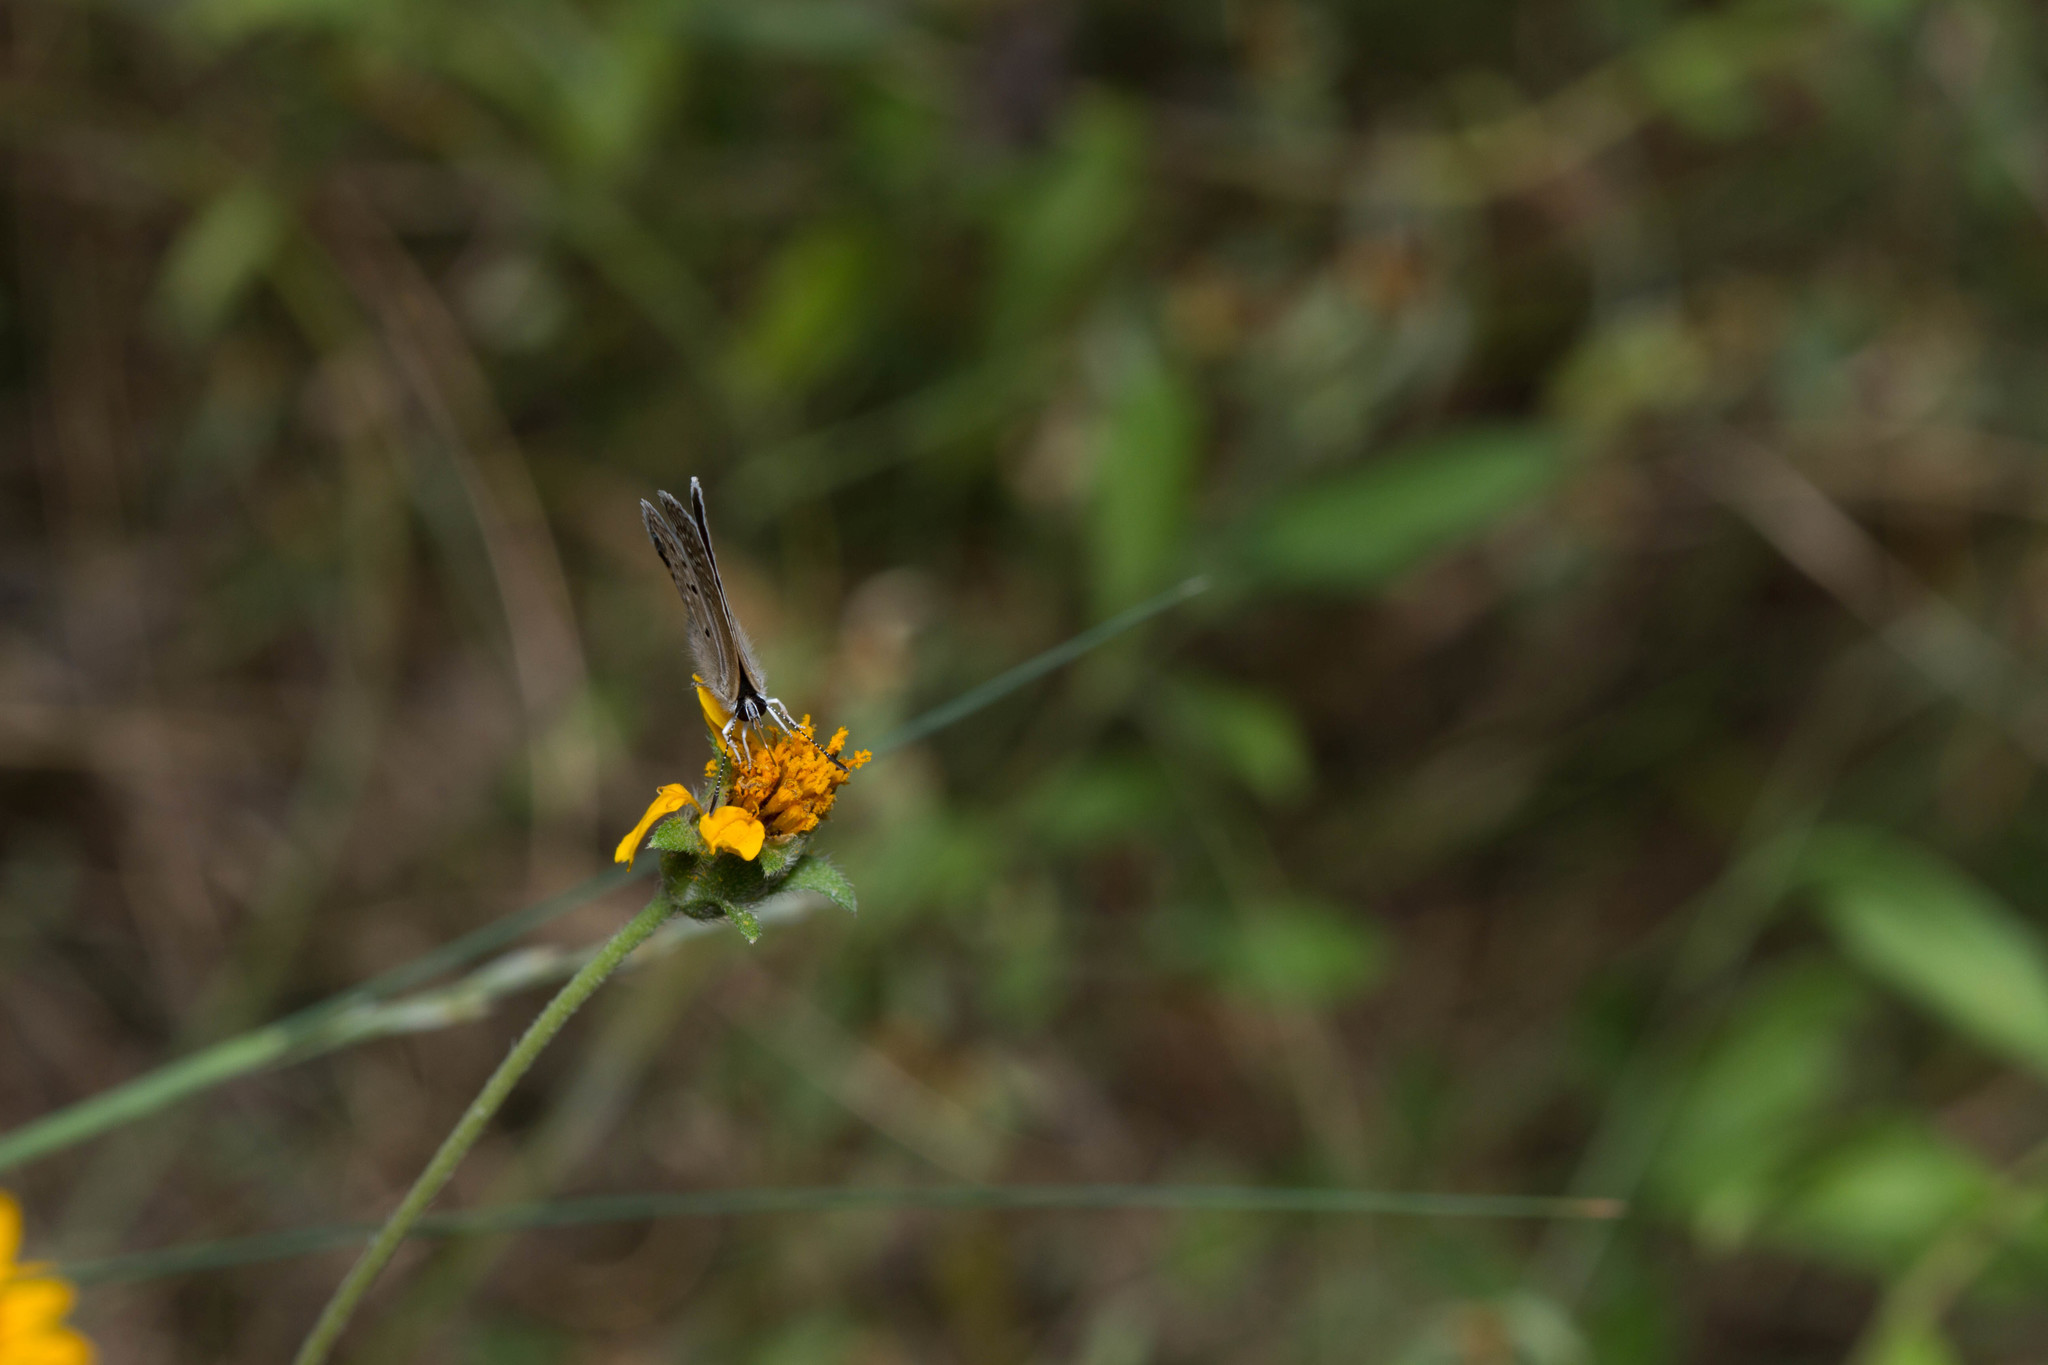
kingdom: Animalia
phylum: Arthropoda
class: Insecta
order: Lepidoptera
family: Lycaenidae
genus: Hemiargus
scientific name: Hemiargus ceraunus
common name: Ceraunus blue
